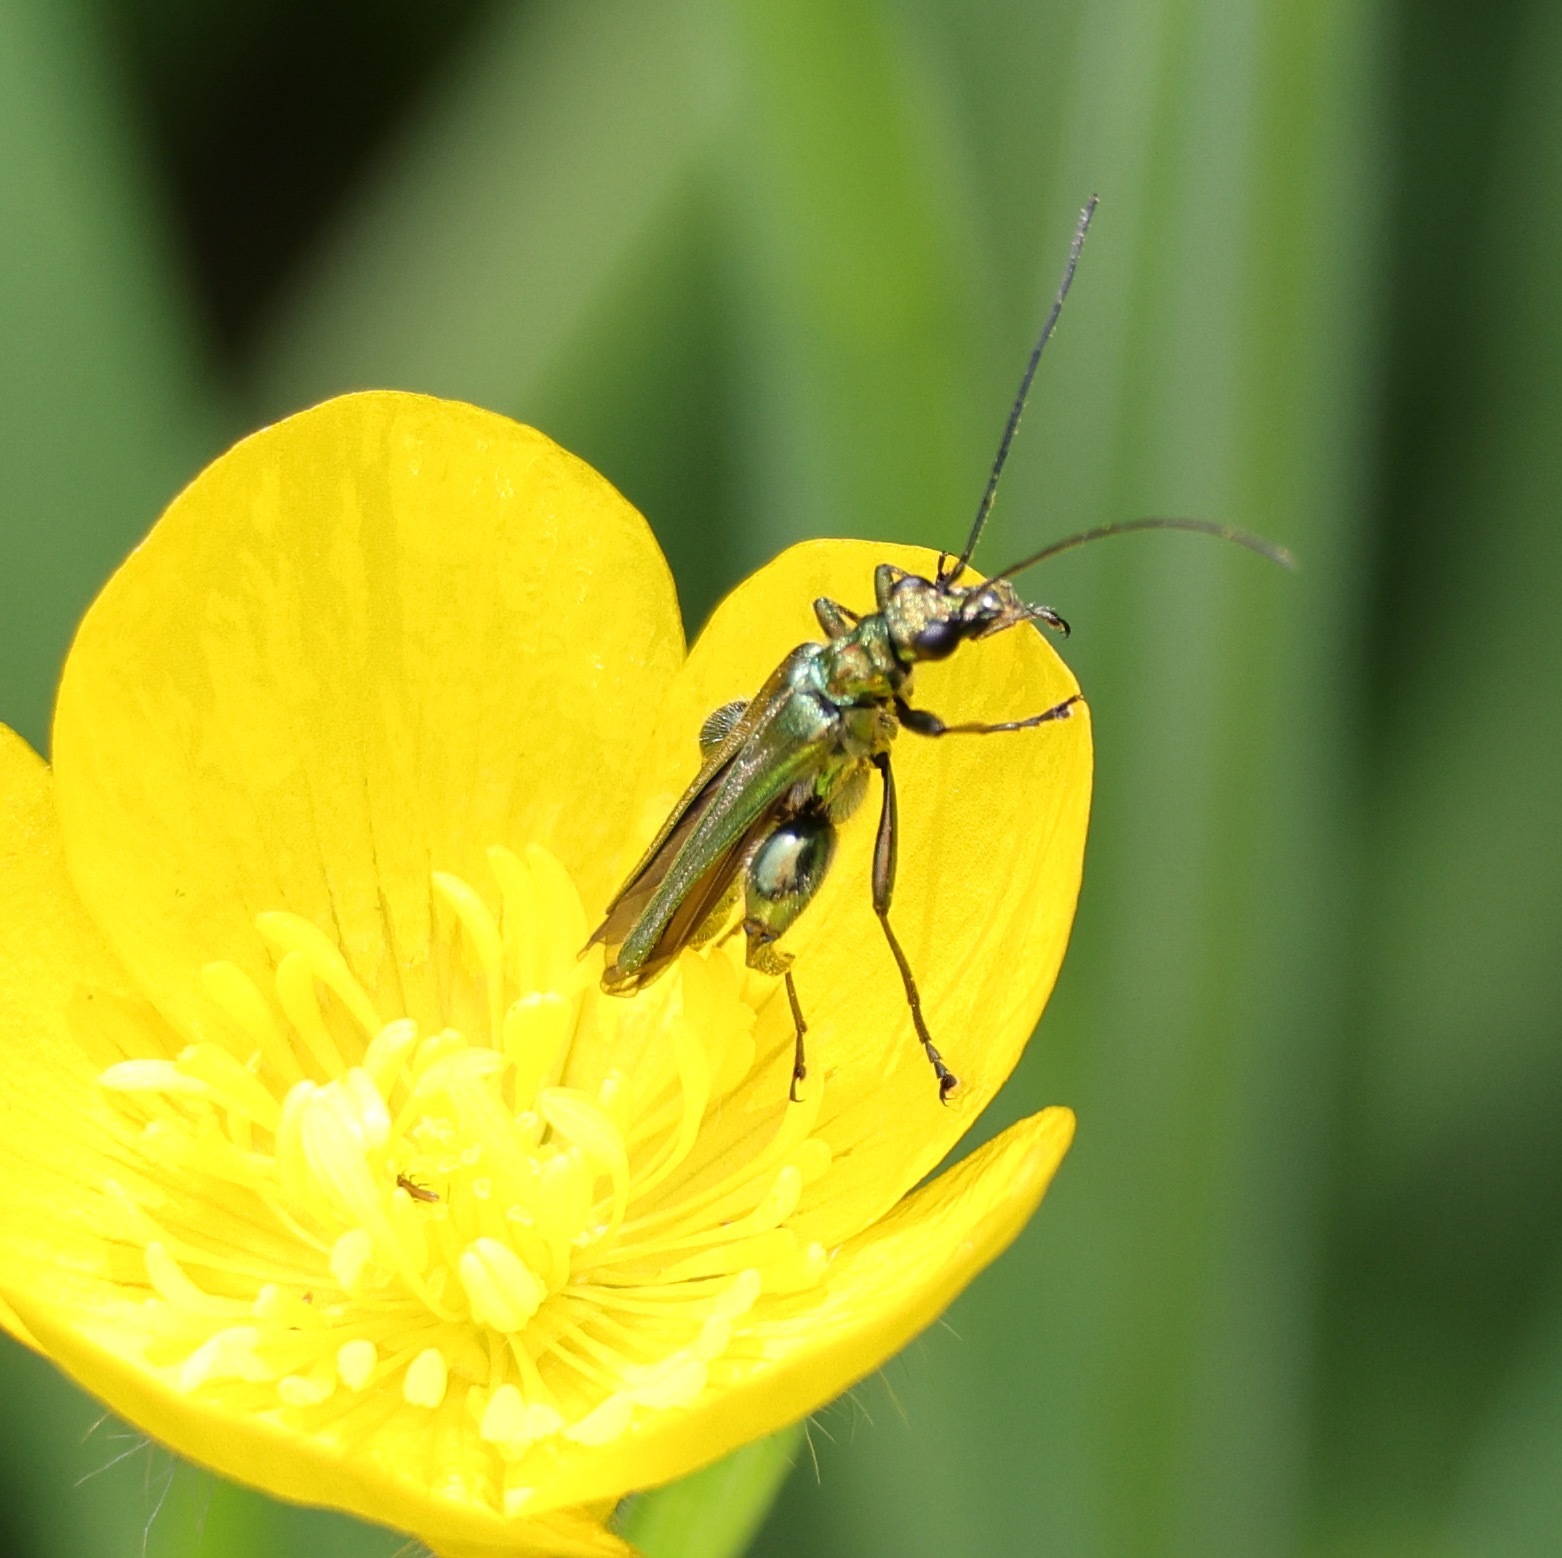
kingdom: Animalia
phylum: Arthropoda
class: Insecta
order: Coleoptera
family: Oedemeridae
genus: Oedemera
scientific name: Oedemera nobilis
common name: Swollen-thighed beetle
